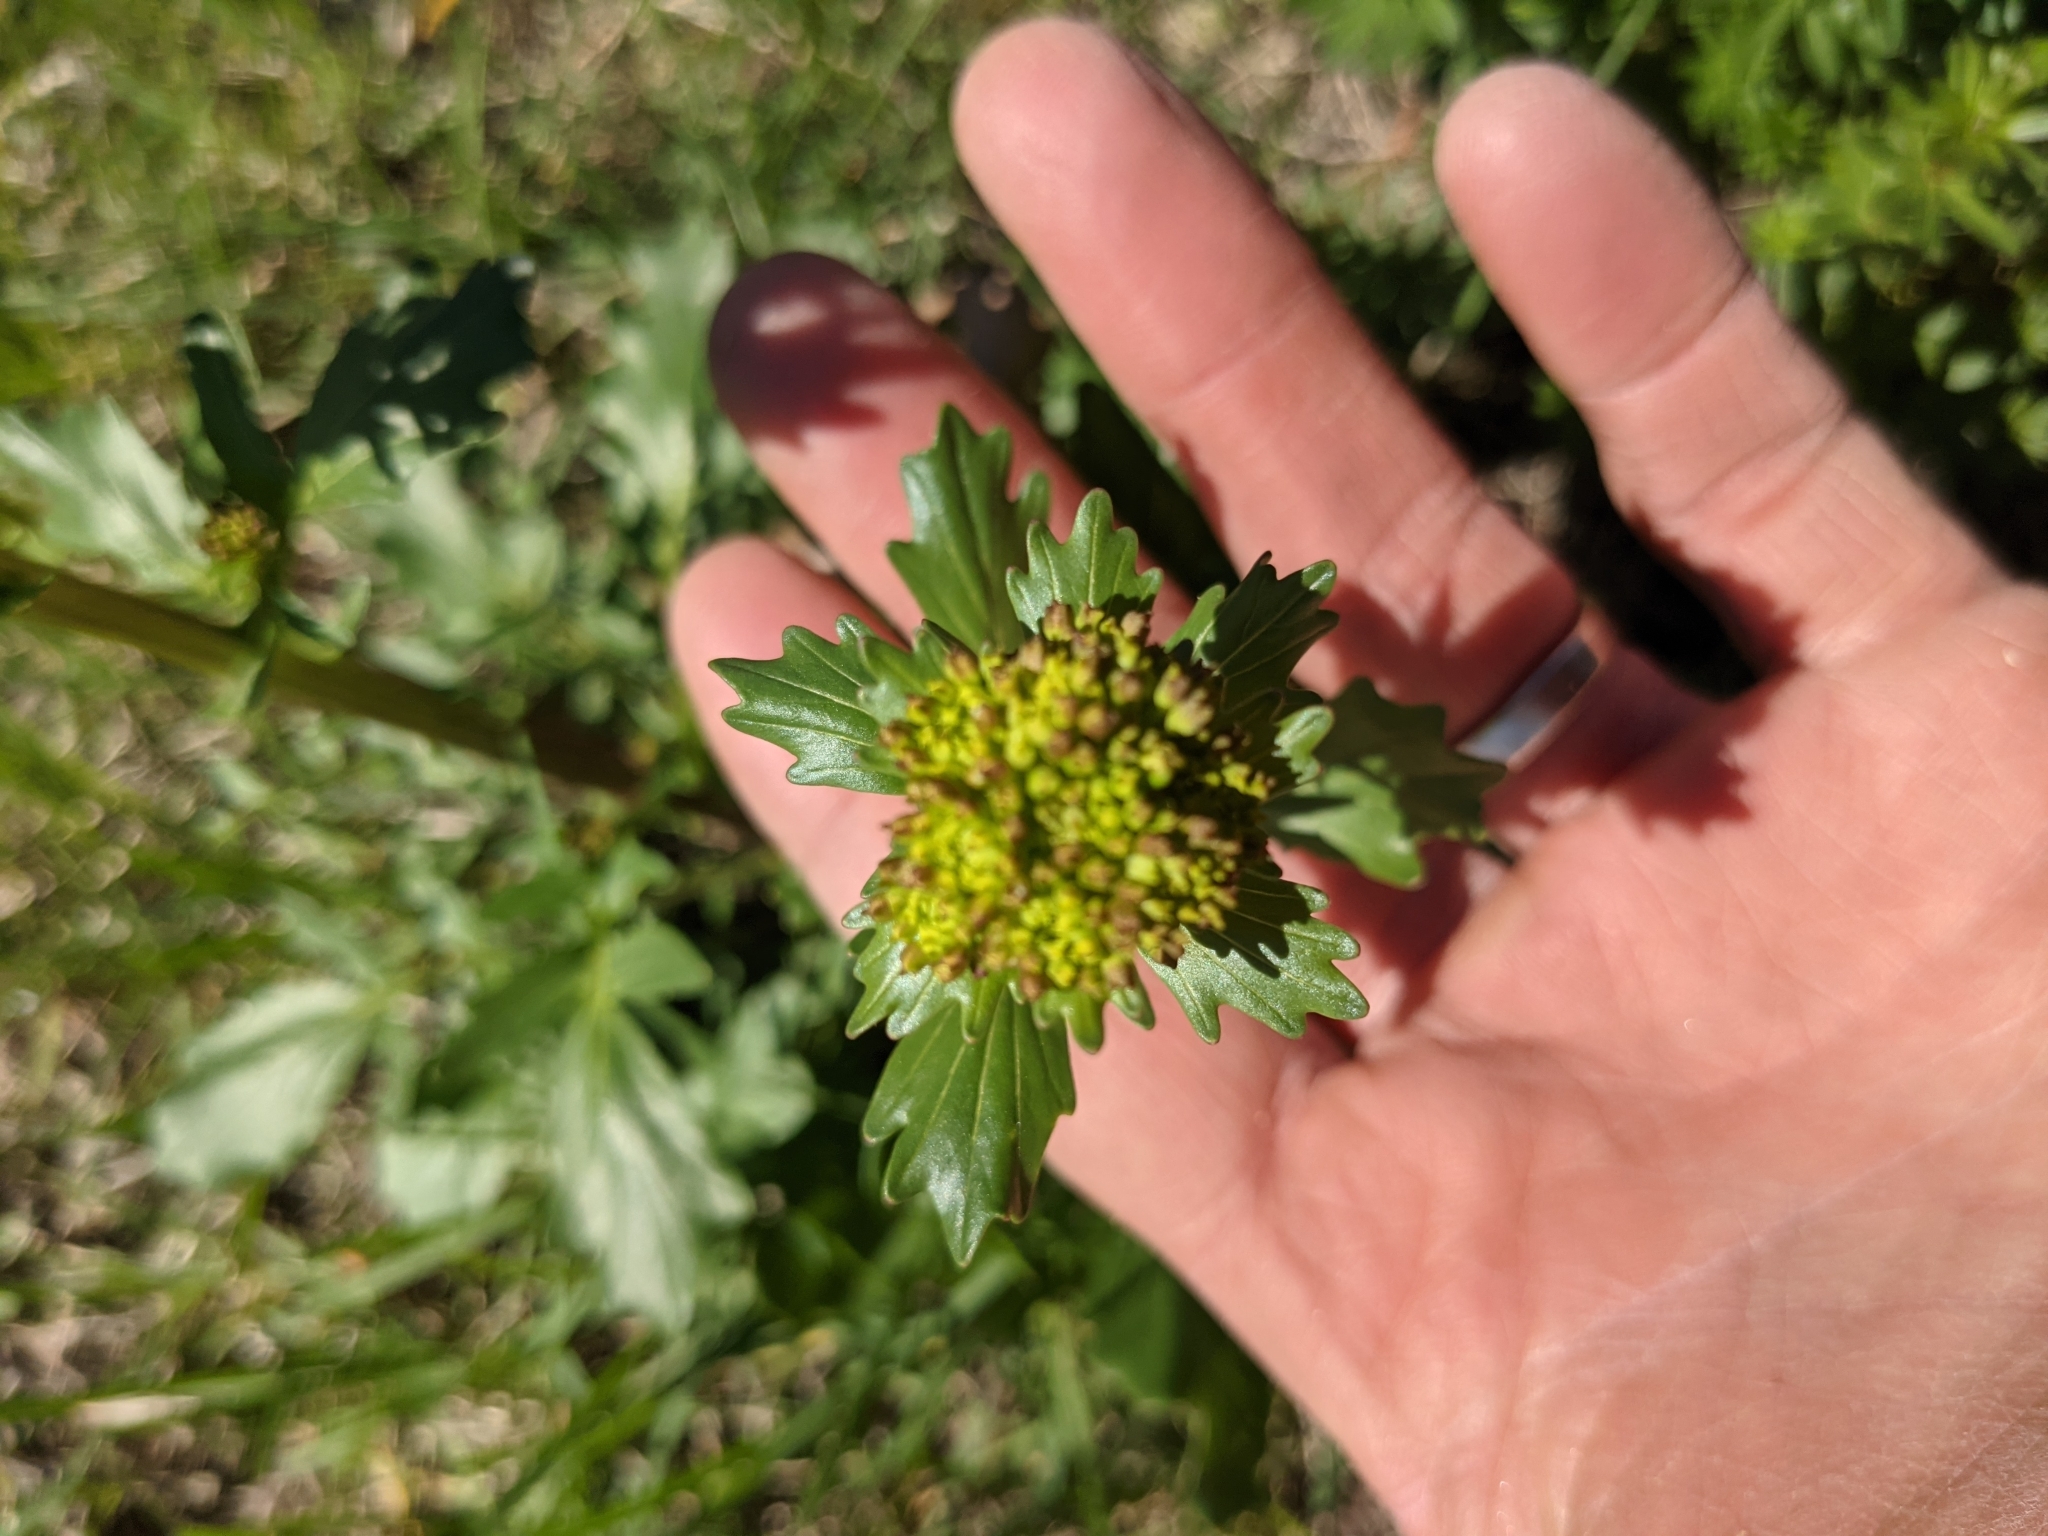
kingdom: Plantae
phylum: Tracheophyta
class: Magnoliopsida
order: Brassicales
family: Brassicaceae
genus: Barbarea
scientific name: Barbarea vulgaris
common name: Cressy-greens
